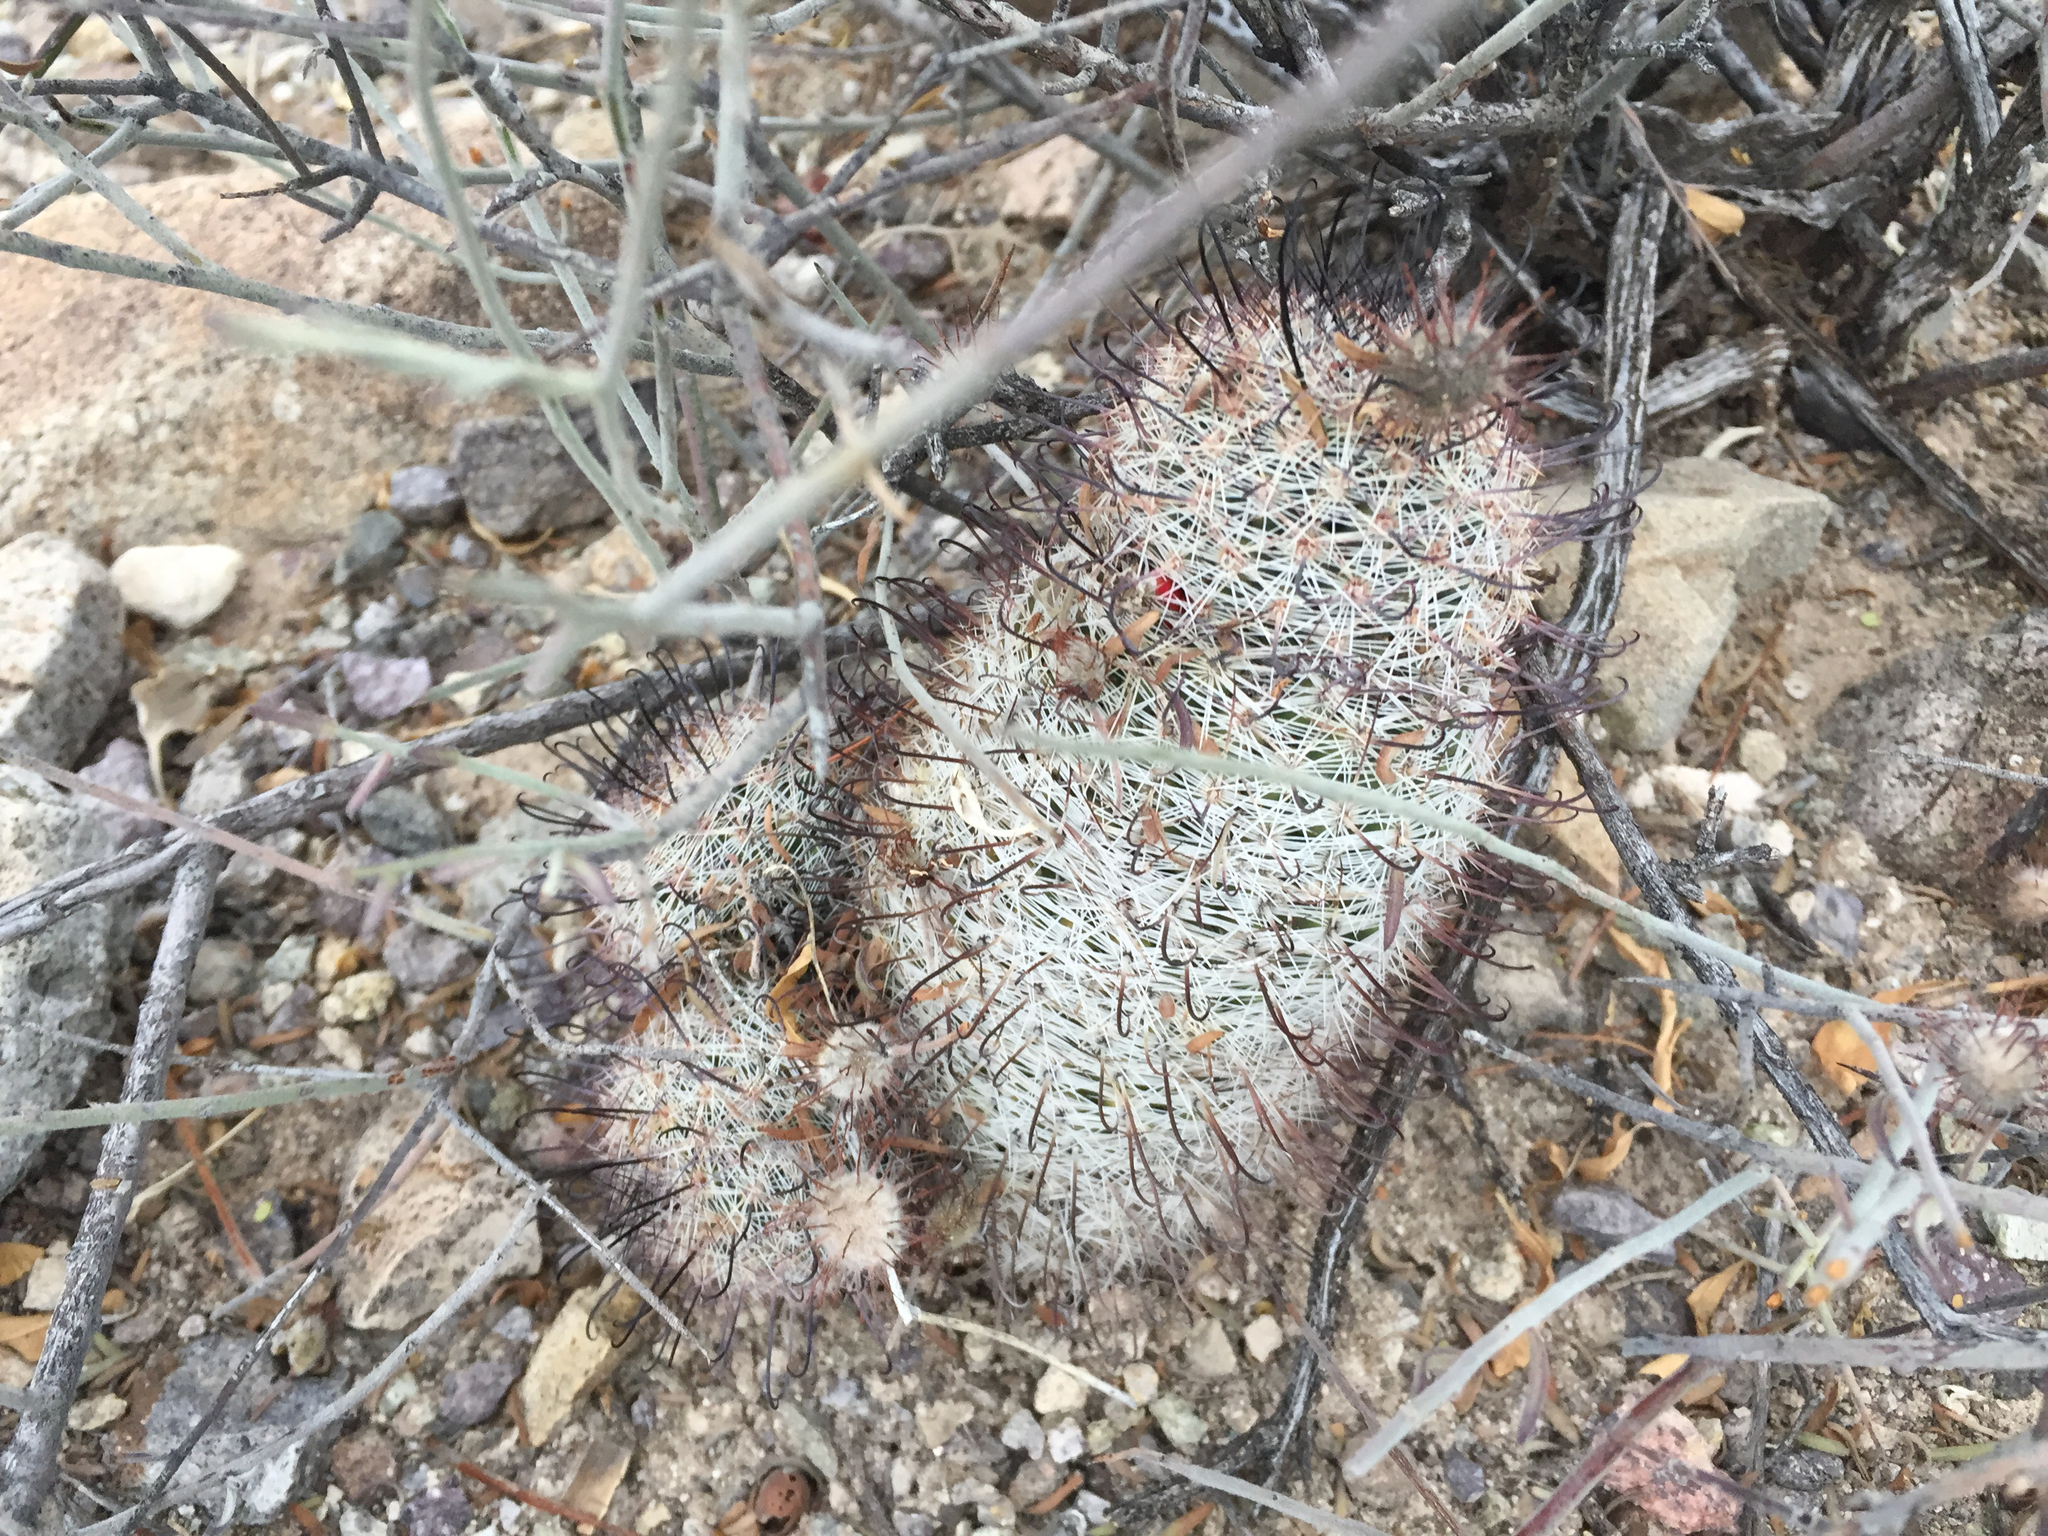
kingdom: Plantae
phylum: Tracheophyta
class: Magnoliopsida
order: Caryophyllales
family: Cactaceae
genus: Cochemiea
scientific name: Cochemiea grahamii
